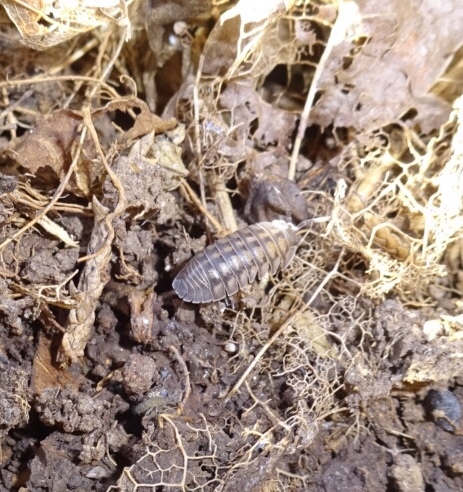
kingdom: Animalia
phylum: Arthropoda
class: Malacostraca
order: Isopoda
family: Armadillidiidae
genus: Armadillidium
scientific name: Armadillidium nasatum
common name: Isopod
